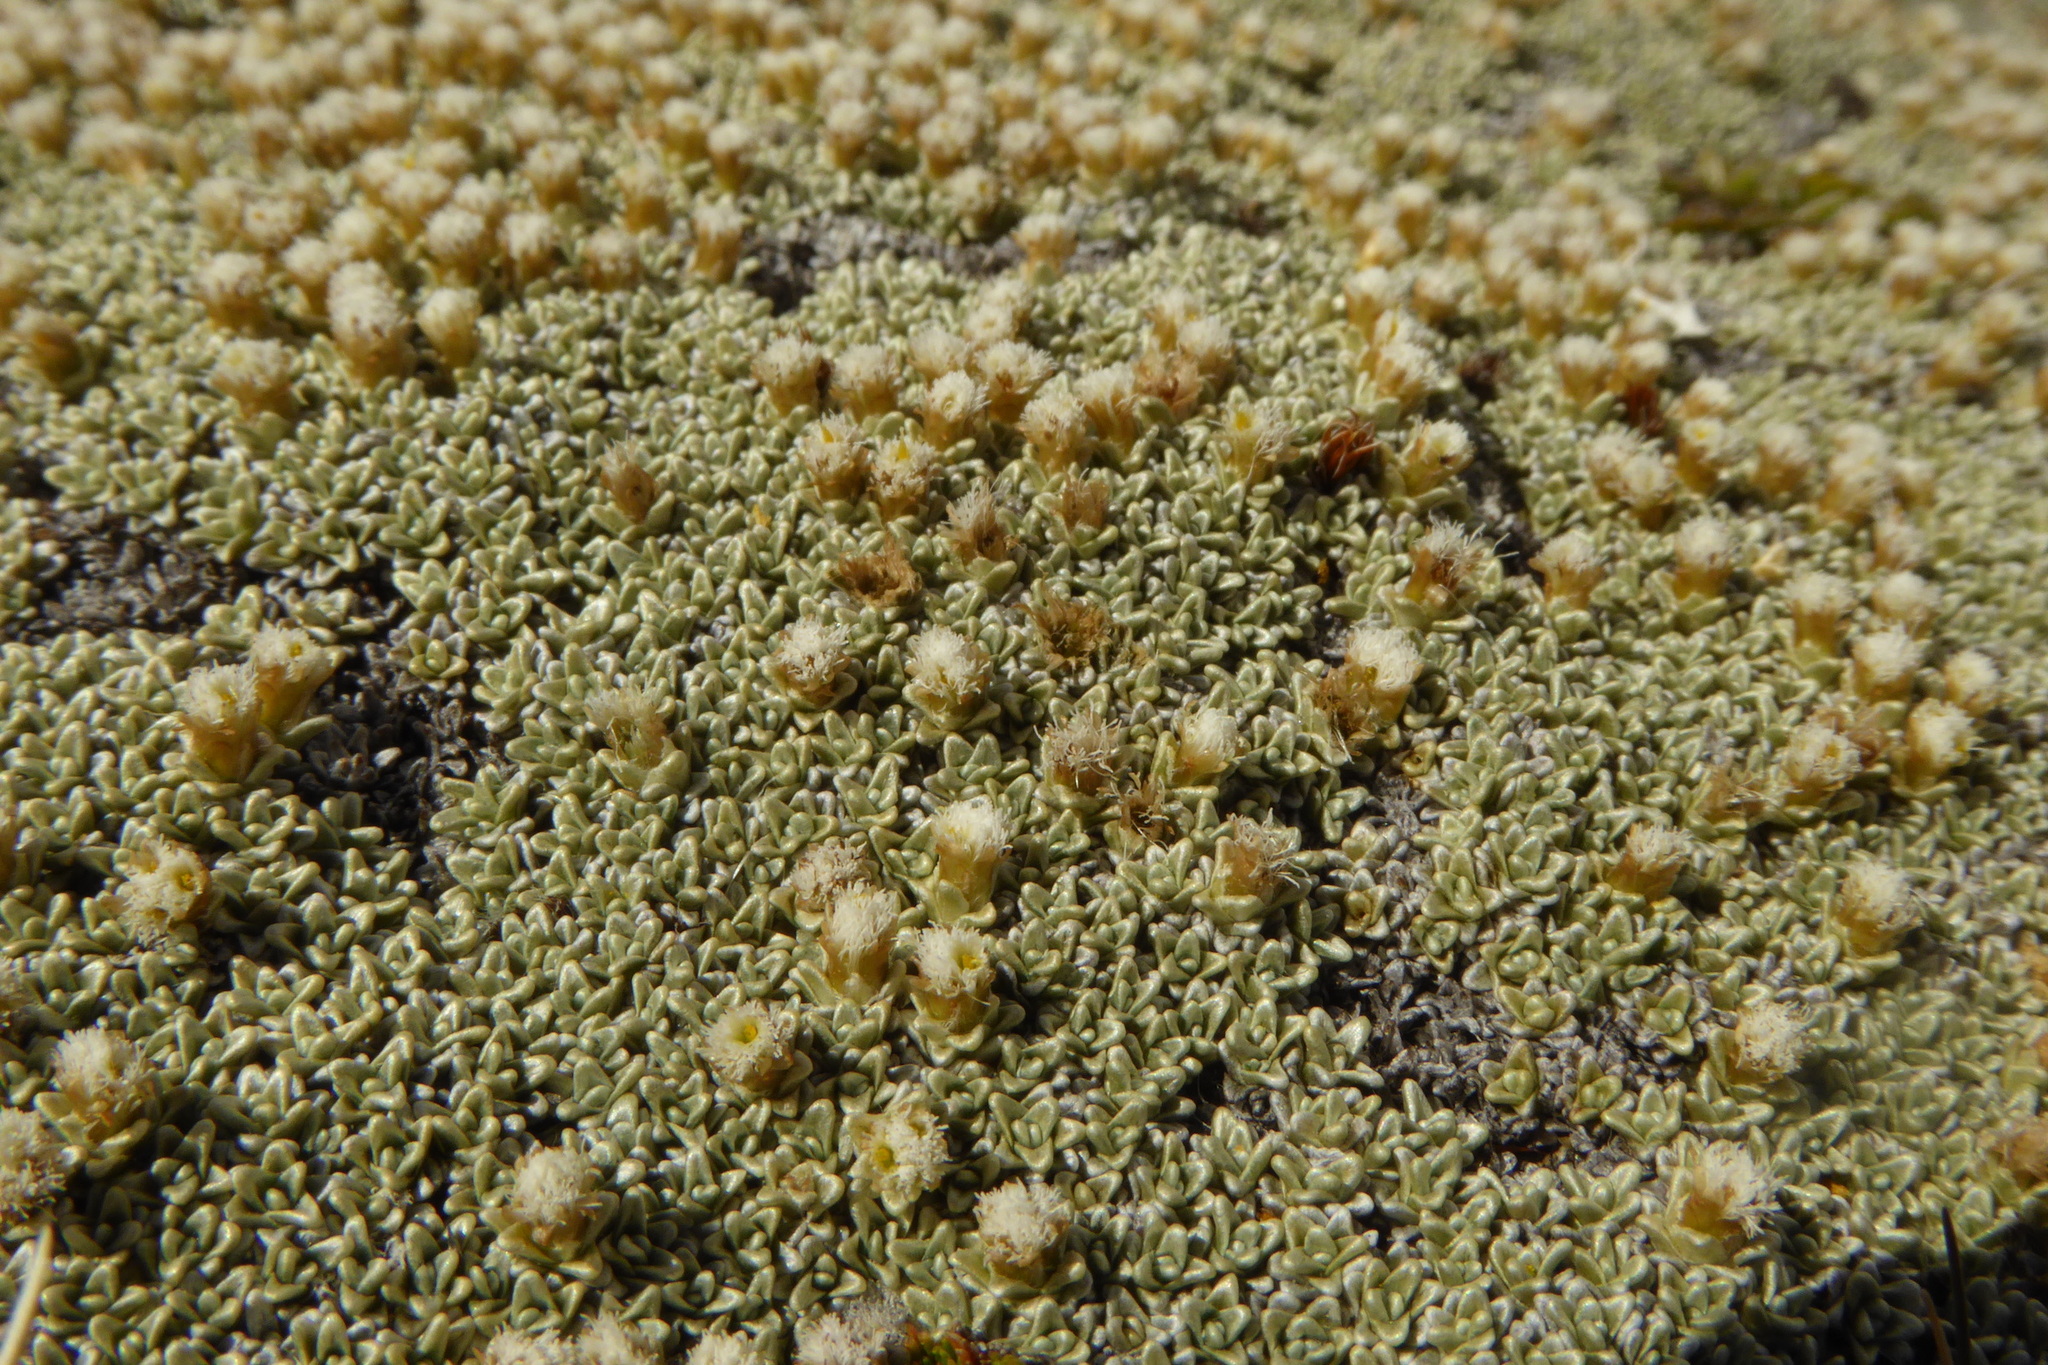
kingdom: Plantae
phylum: Tracheophyta
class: Magnoliopsida
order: Asterales
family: Asteraceae
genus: Raoulia
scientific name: Raoulia hectorii
